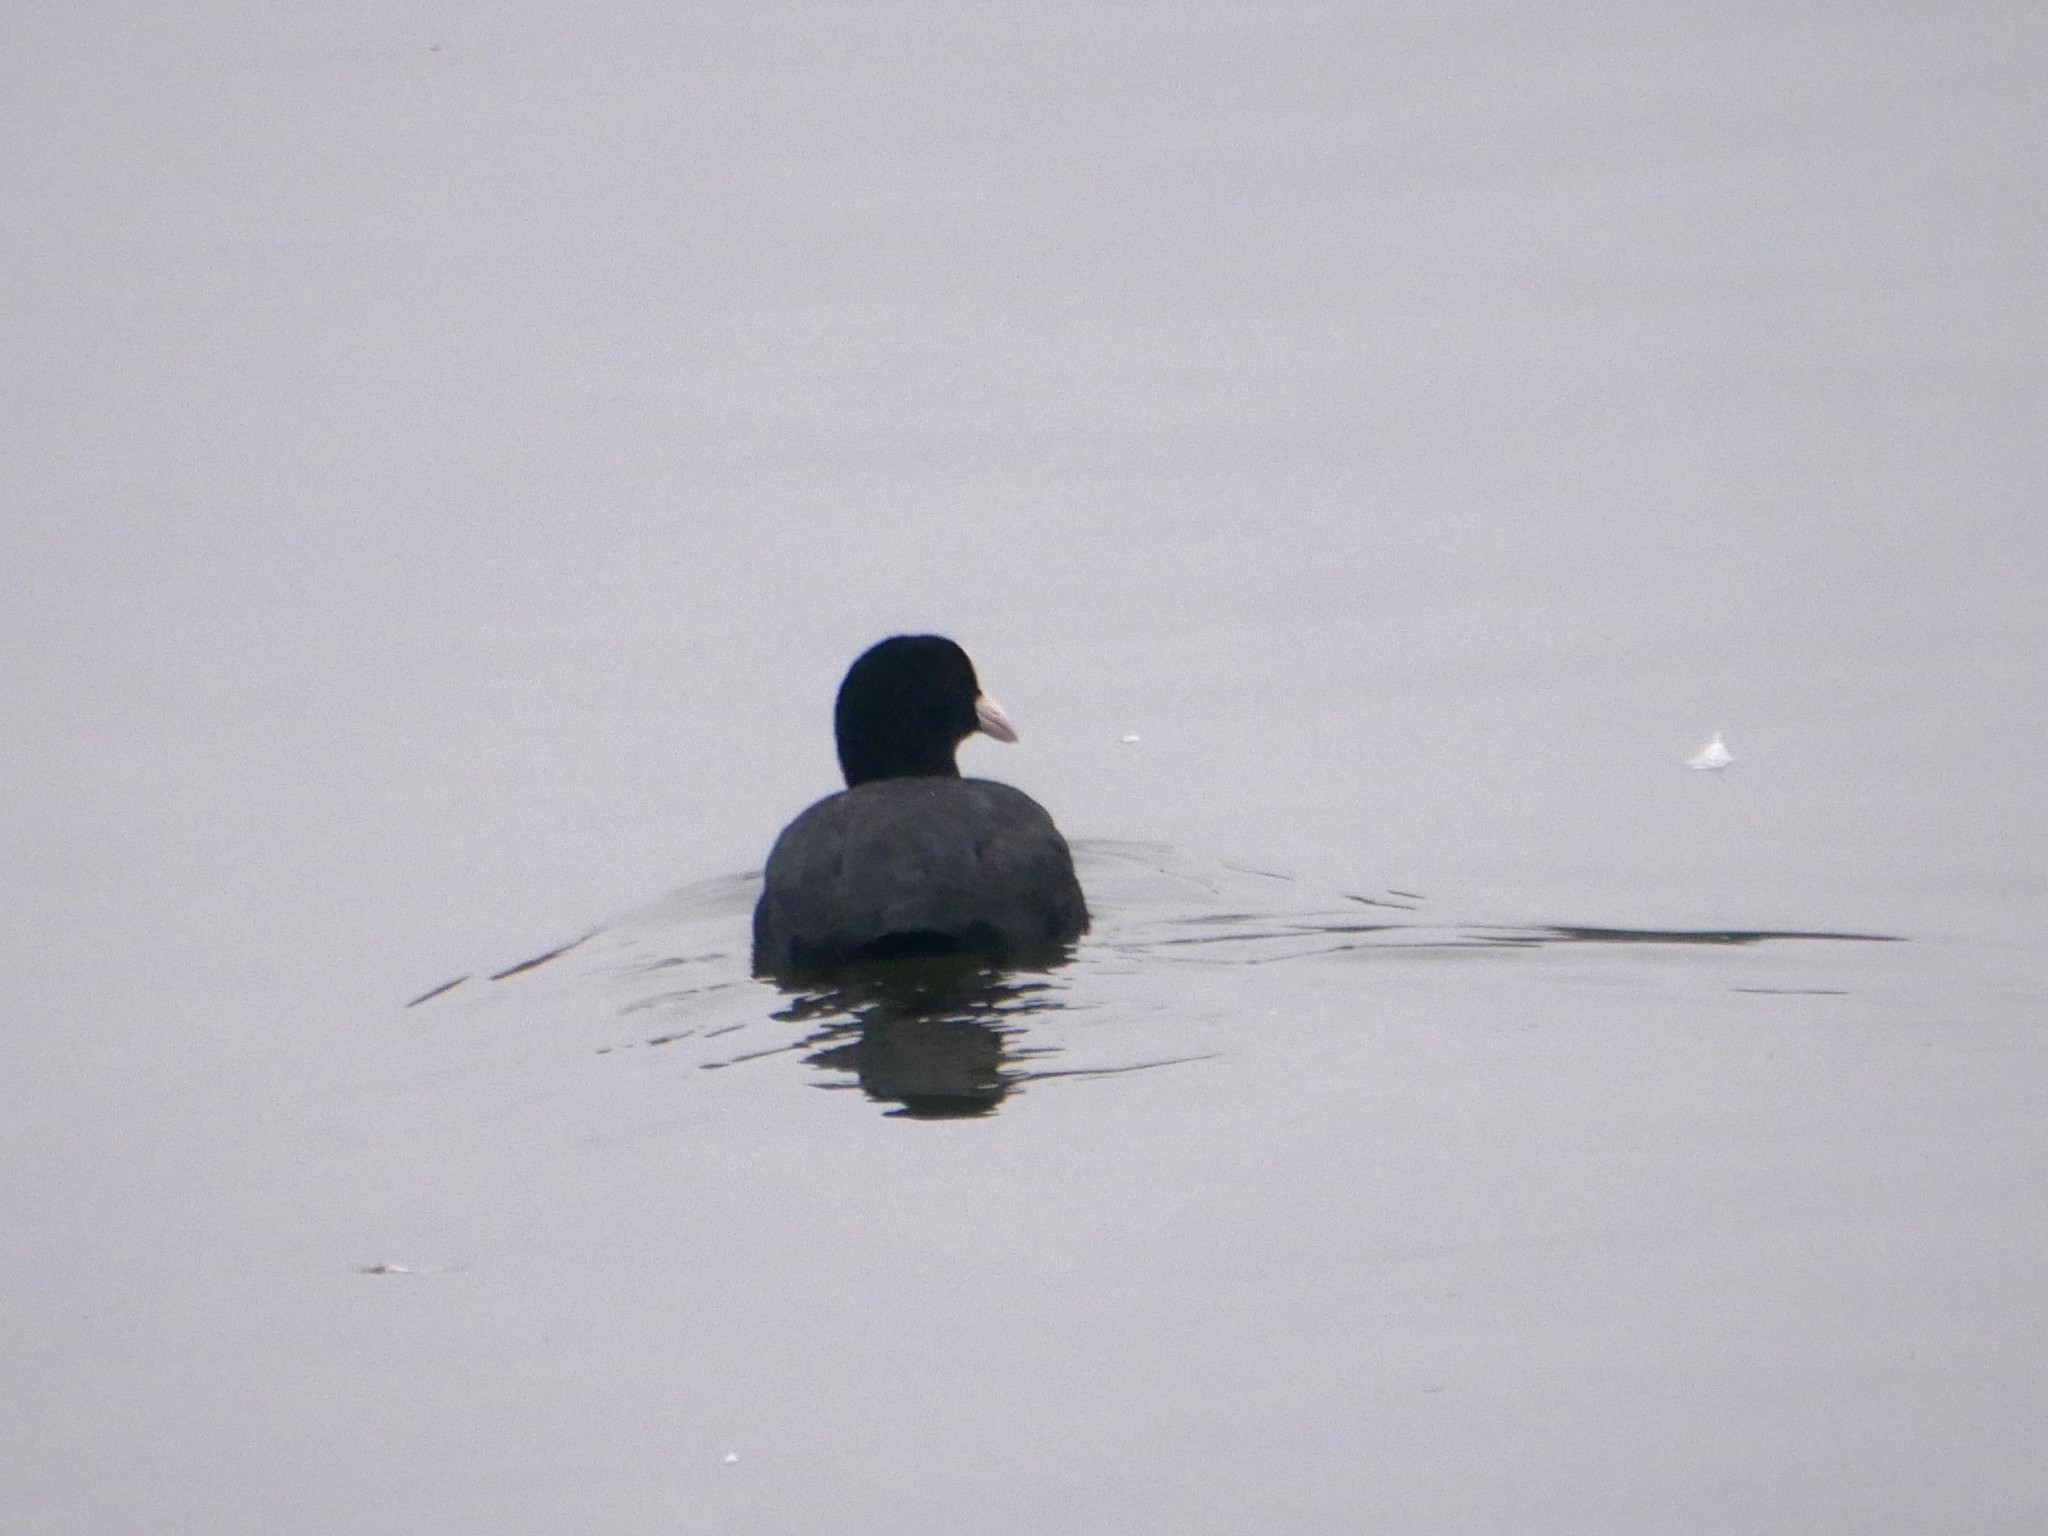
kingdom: Animalia
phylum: Chordata
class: Aves
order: Gruiformes
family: Rallidae
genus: Fulica
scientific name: Fulica atra
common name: Eurasian coot
